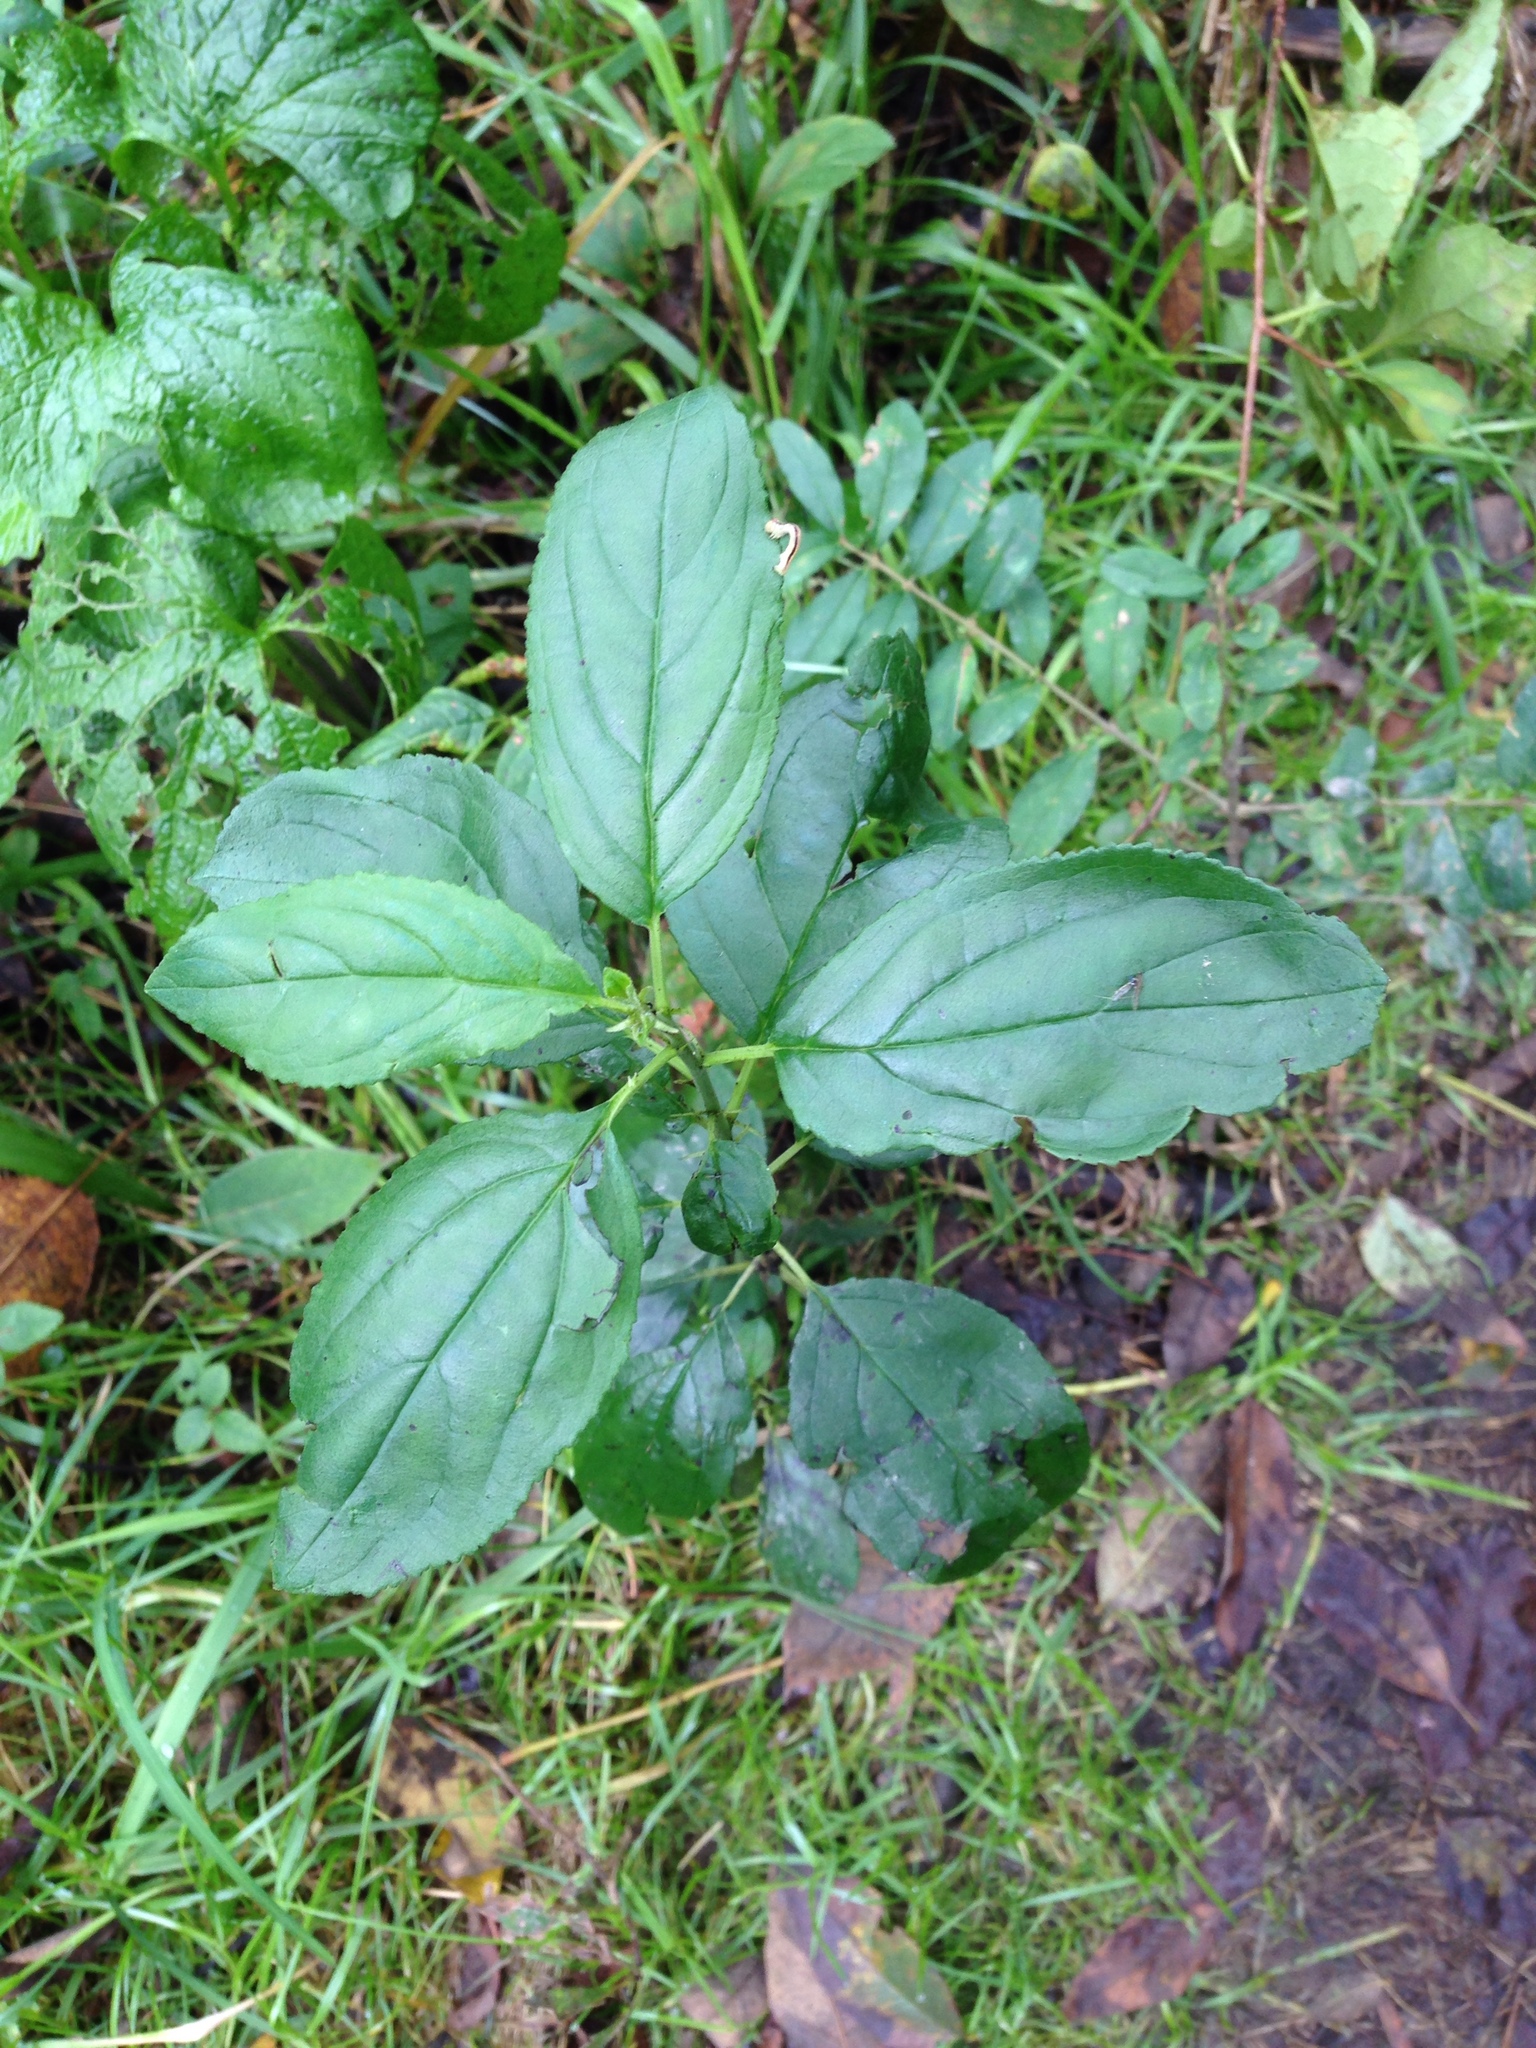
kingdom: Plantae
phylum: Tracheophyta
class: Magnoliopsida
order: Rosales
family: Rhamnaceae
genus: Rhamnus
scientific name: Rhamnus cathartica
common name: Common buckthorn
